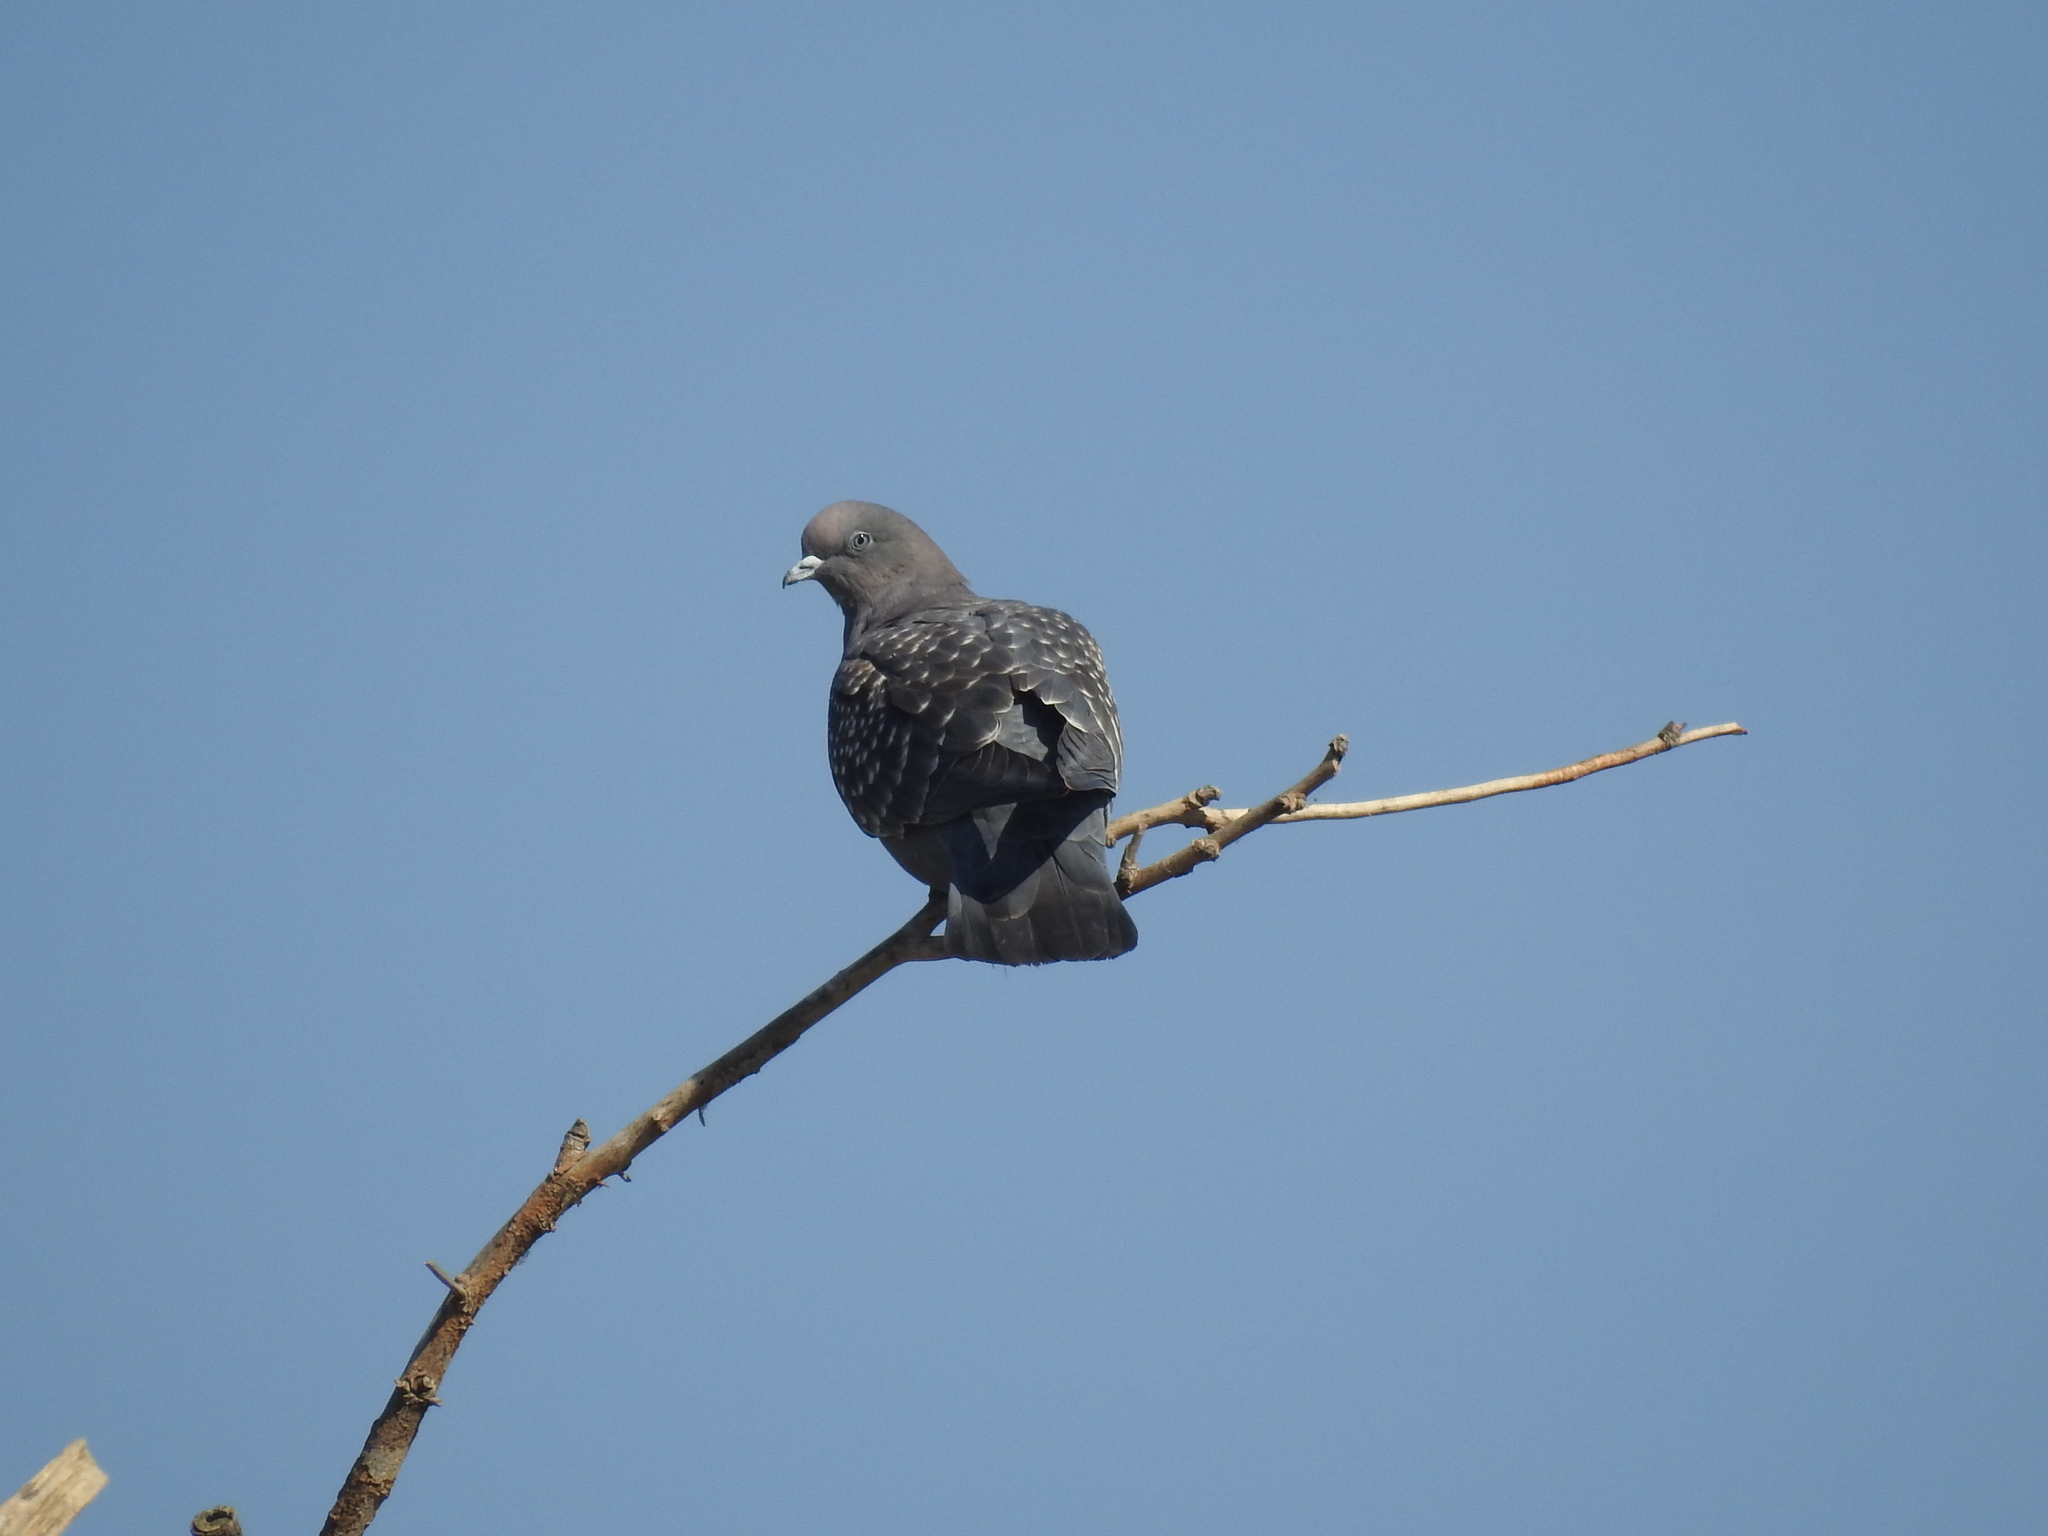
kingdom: Animalia
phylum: Chordata
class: Aves
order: Columbiformes
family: Columbidae
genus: Patagioenas
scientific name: Patagioenas maculosa
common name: Spot-winged pigeon
